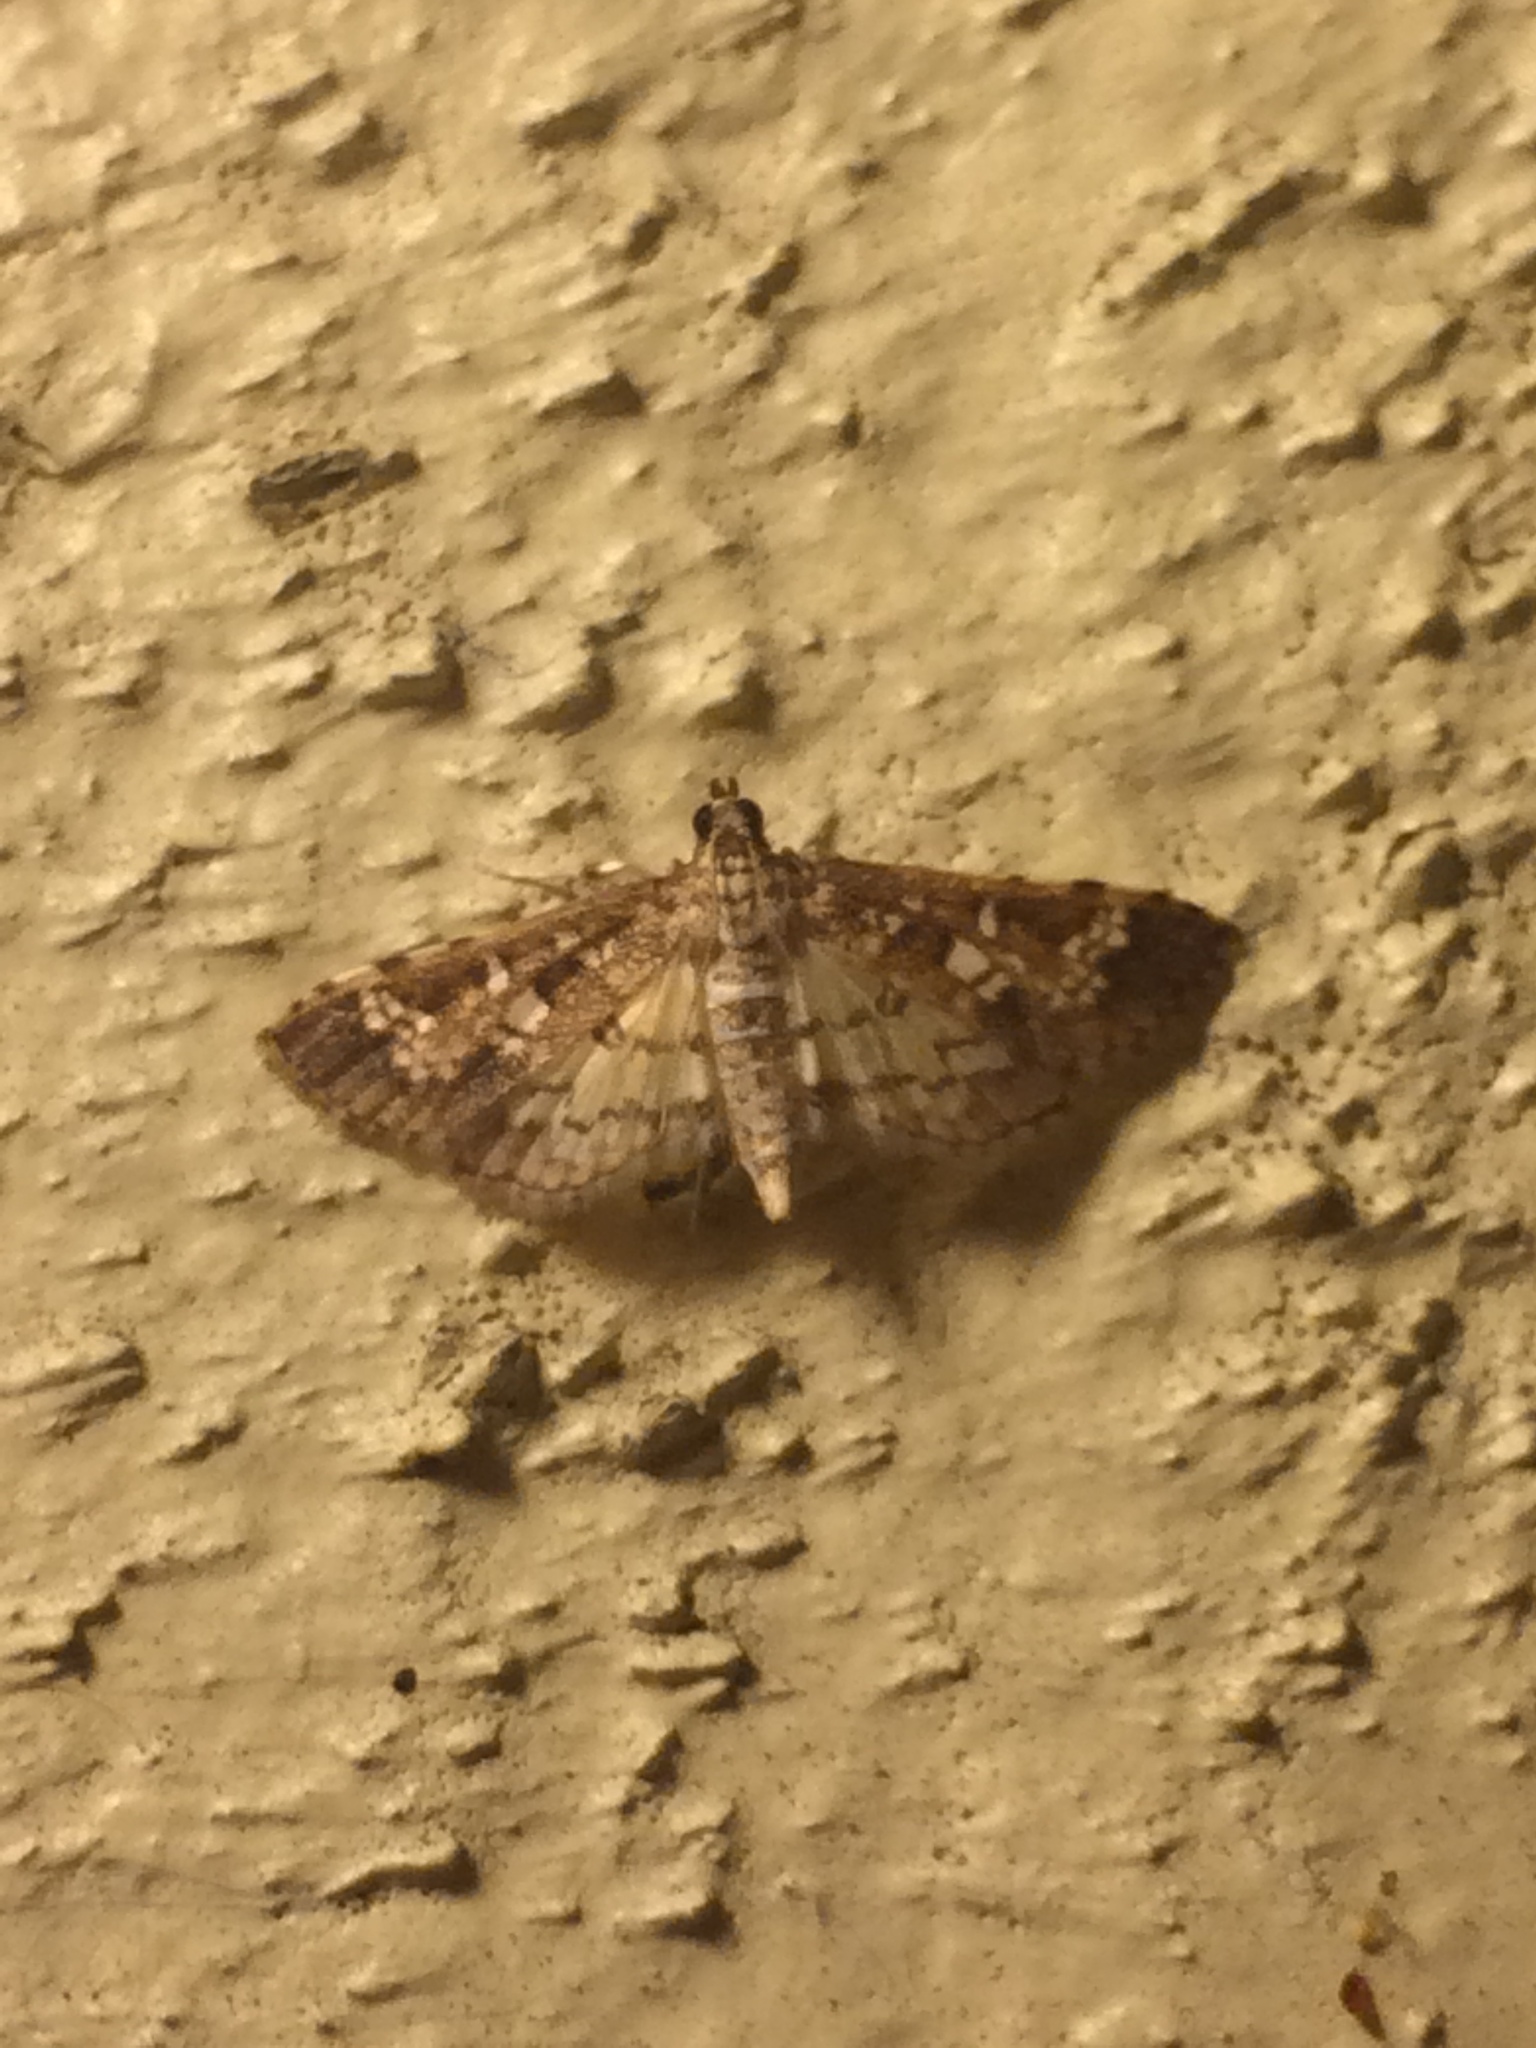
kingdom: Animalia
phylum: Arthropoda
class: Insecta
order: Lepidoptera
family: Crambidae
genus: Samea
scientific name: Samea multiplicalis
